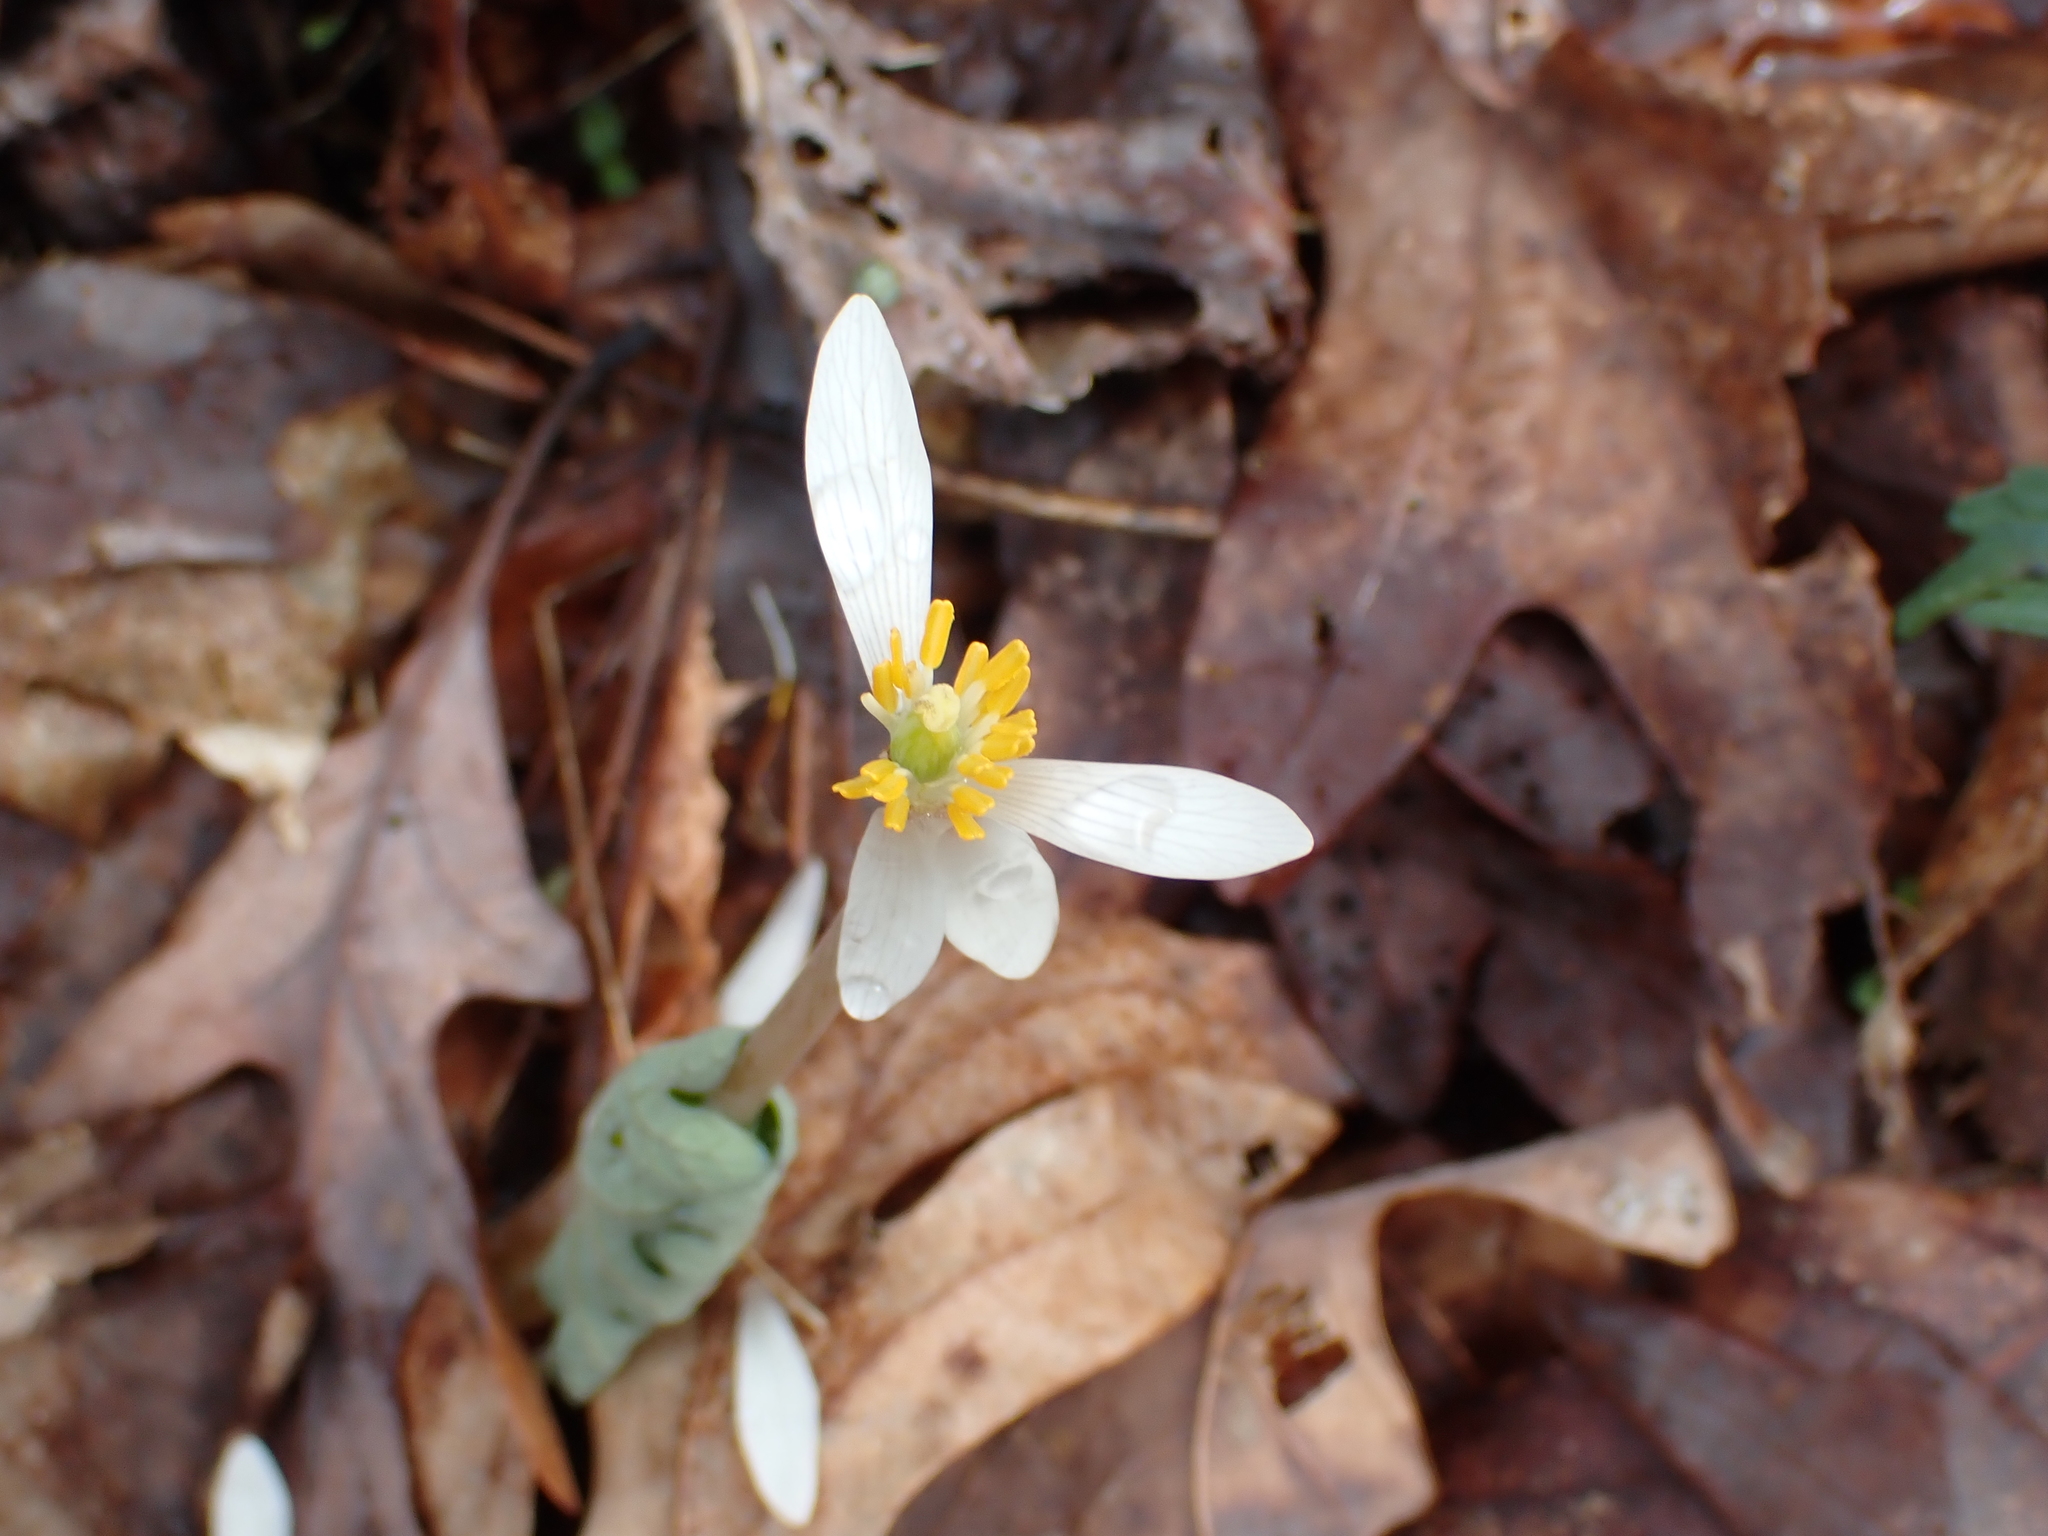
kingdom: Plantae
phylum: Tracheophyta
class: Magnoliopsida
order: Ranunculales
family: Papaveraceae
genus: Sanguinaria
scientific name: Sanguinaria canadensis
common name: Bloodroot
